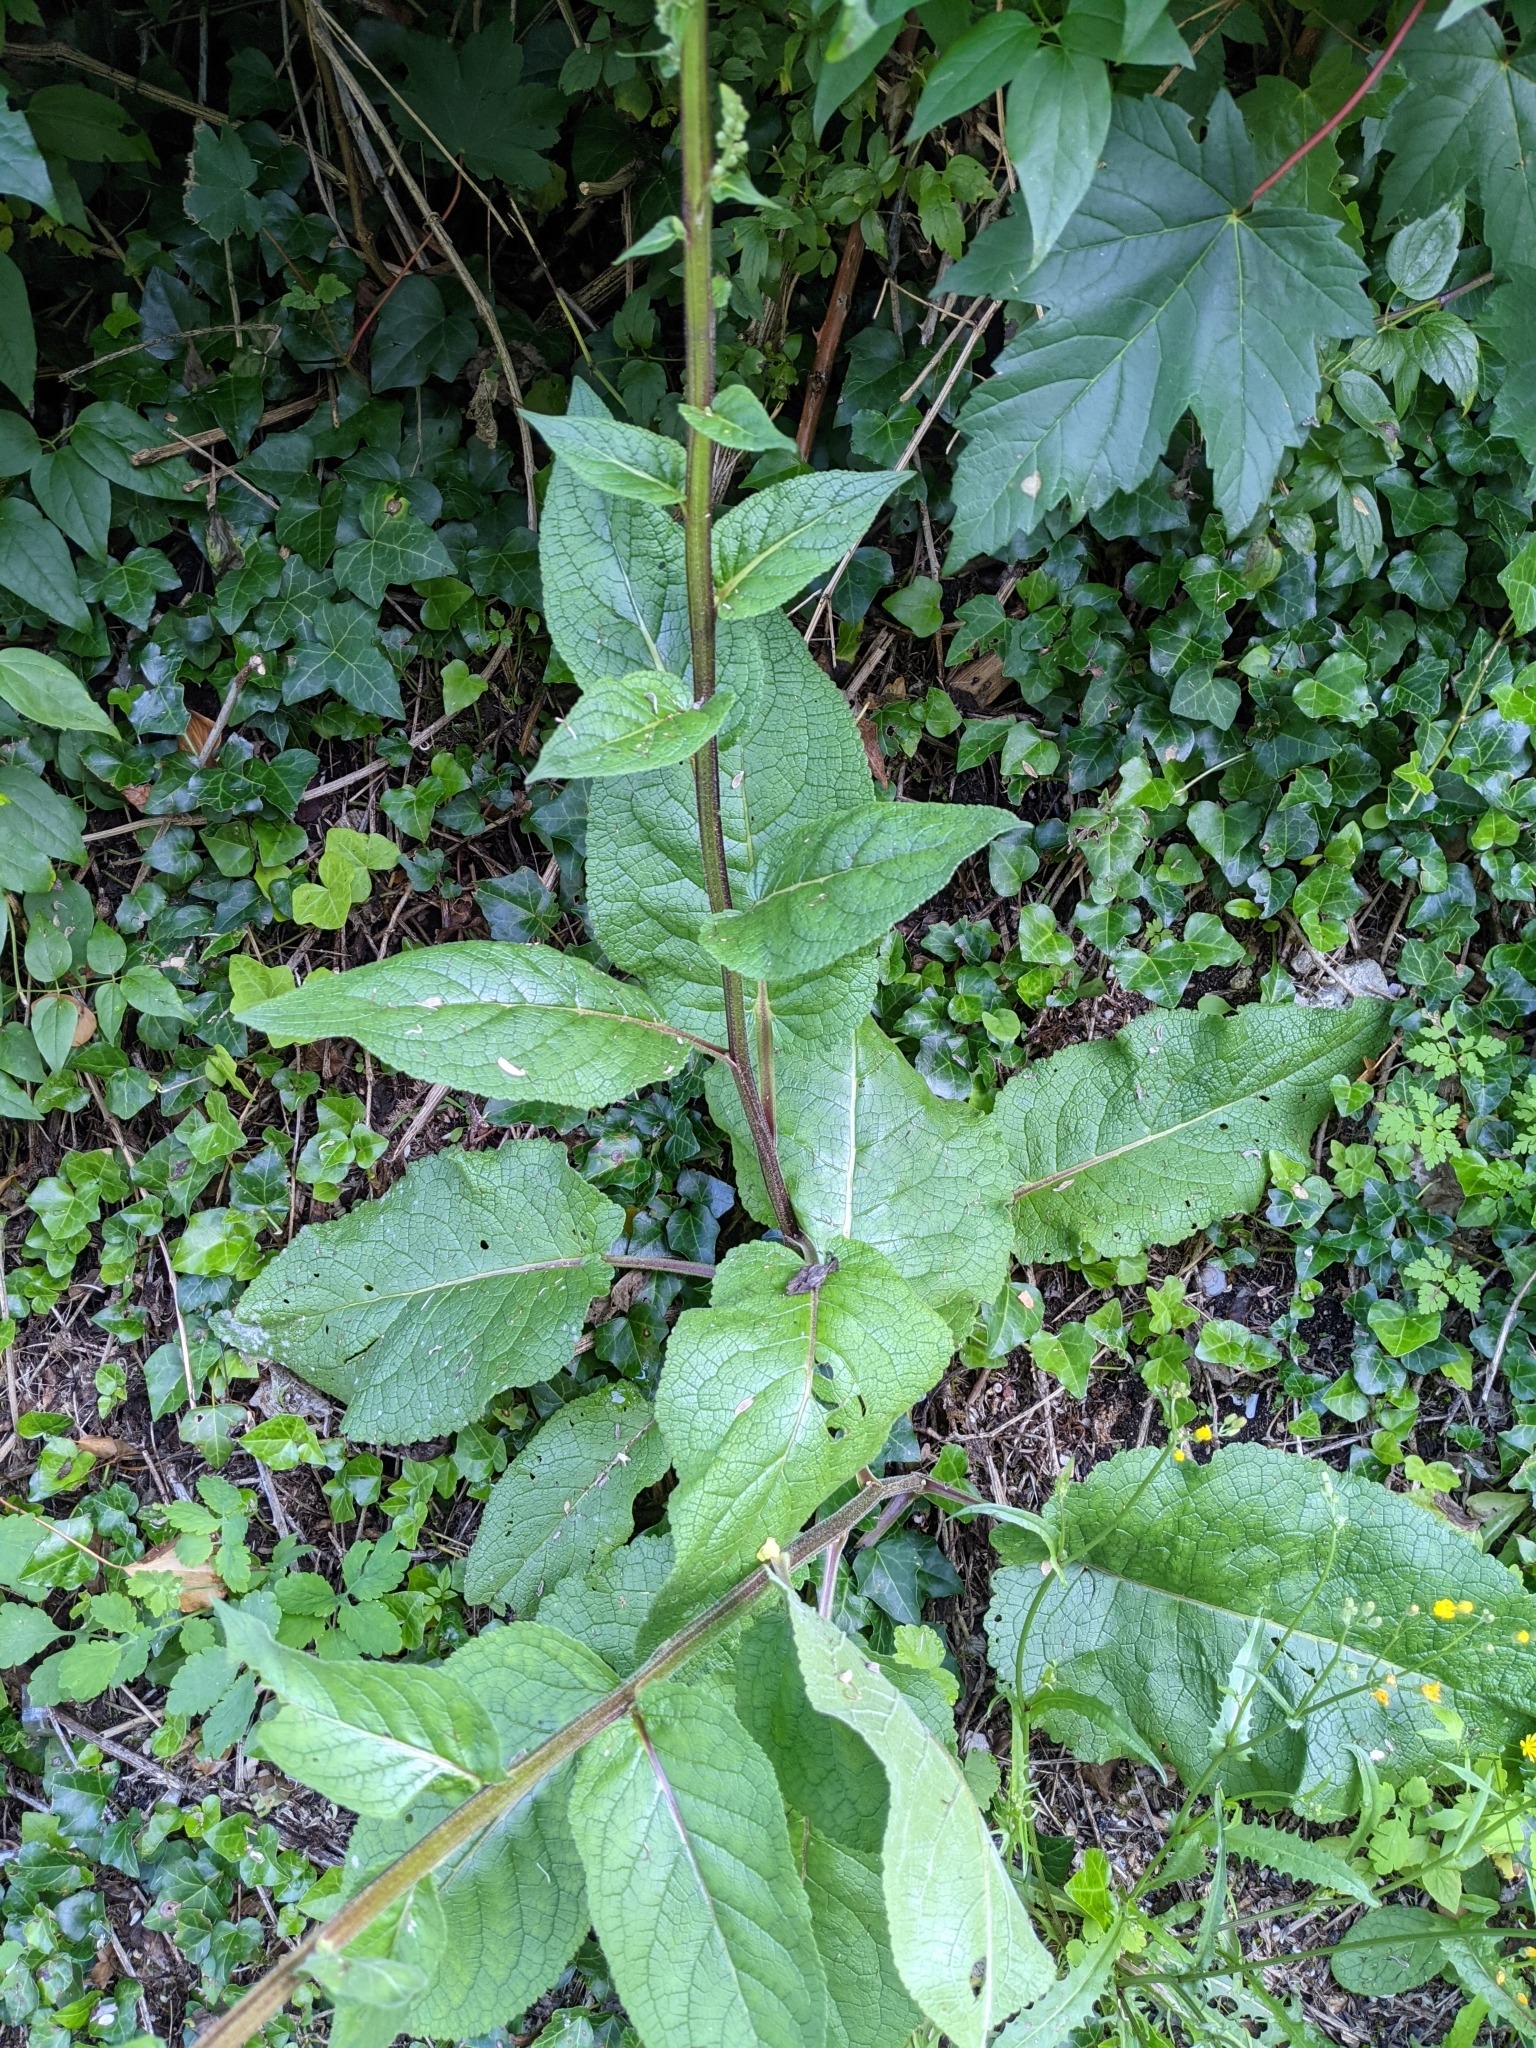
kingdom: Plantae
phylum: Tracheophyta
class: Magnoliopsida
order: Lamiales
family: Scrophulariaceae
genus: Verbascum
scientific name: Verbascum nigrum
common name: Dark mullein
